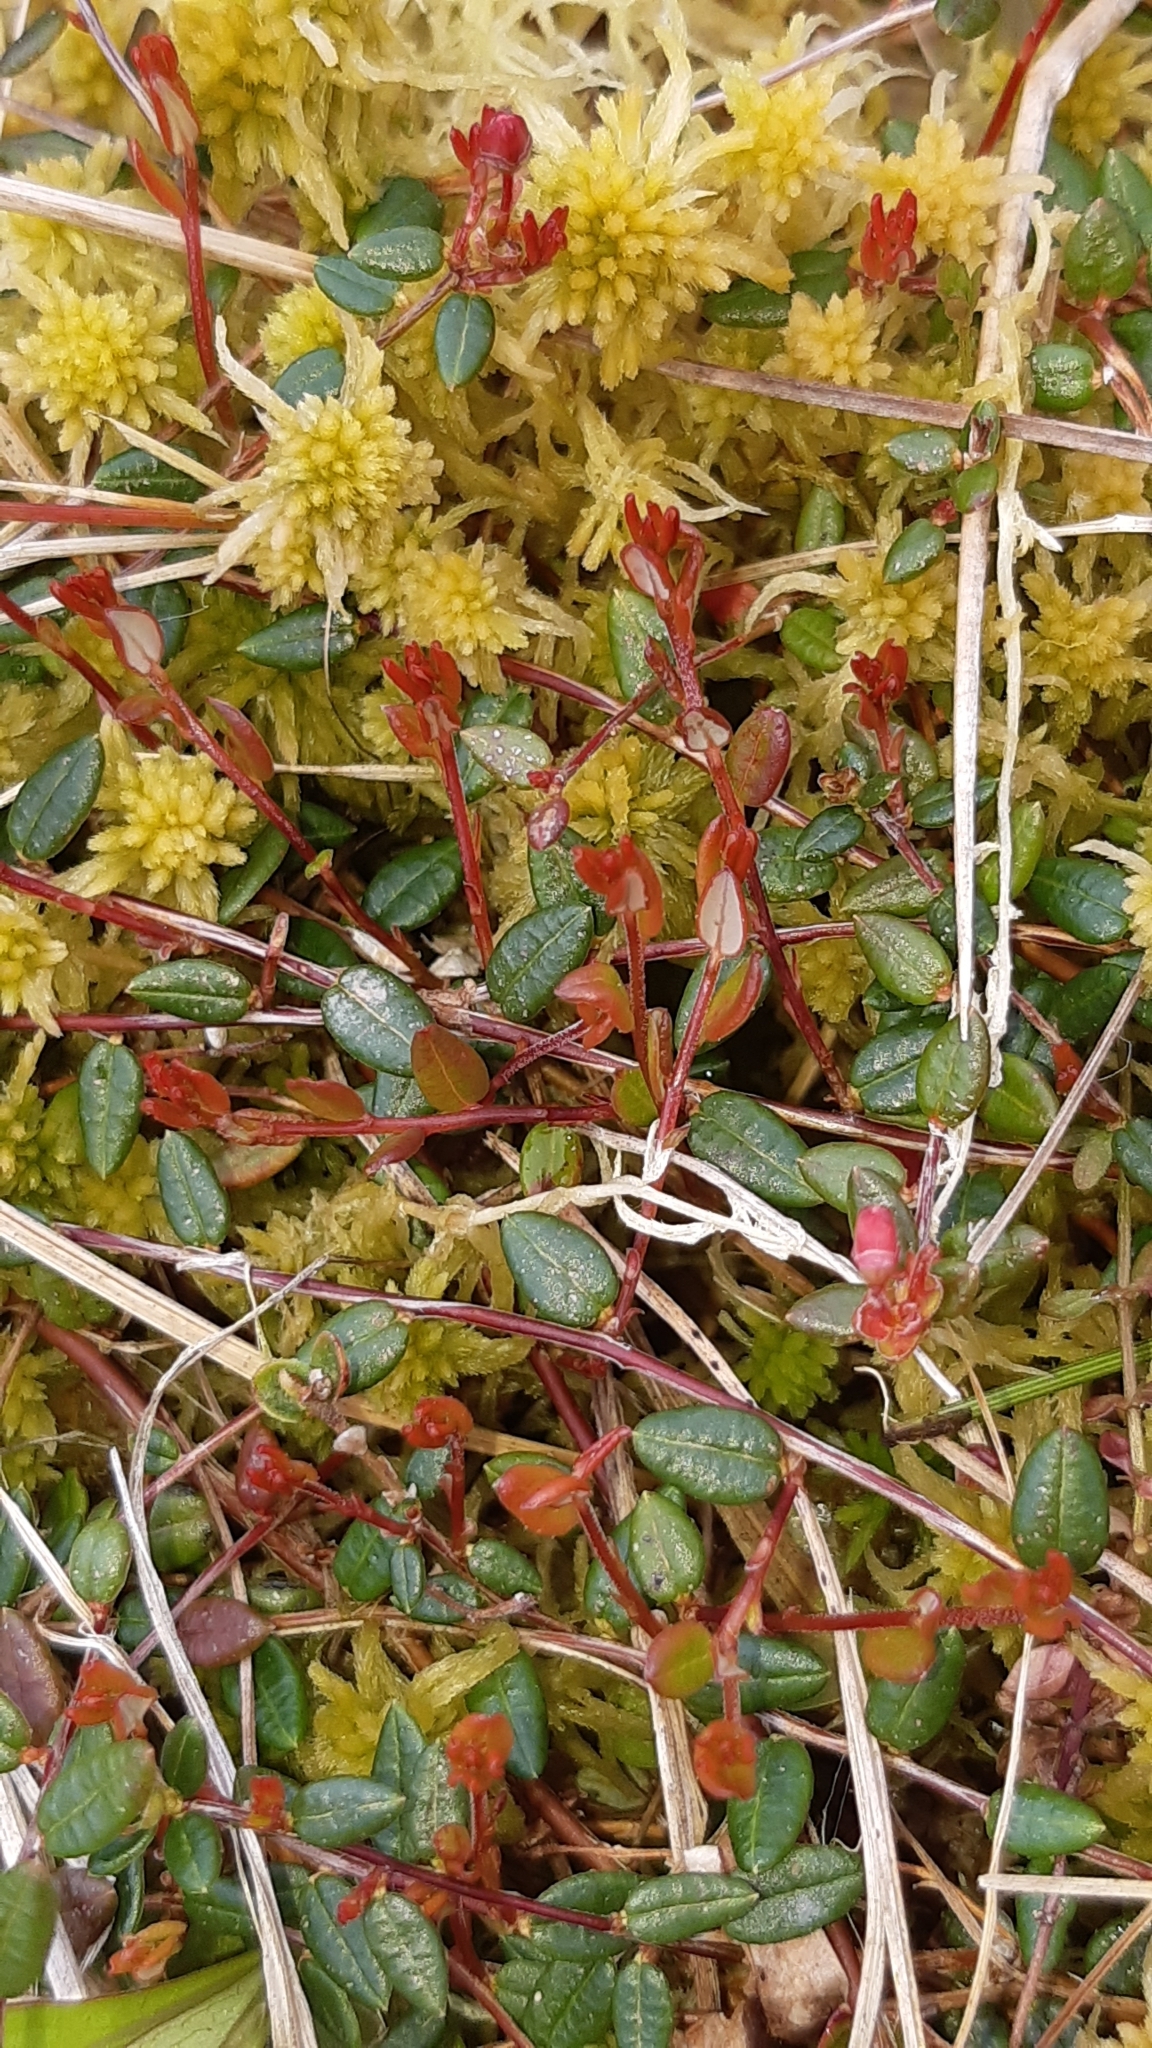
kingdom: Plantae
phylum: Tracheophyta
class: Magnoliopsida
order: Ericales
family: Ericaceae
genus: Vaccinium
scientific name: Vaccinium oxycoccos
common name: Cranberry
